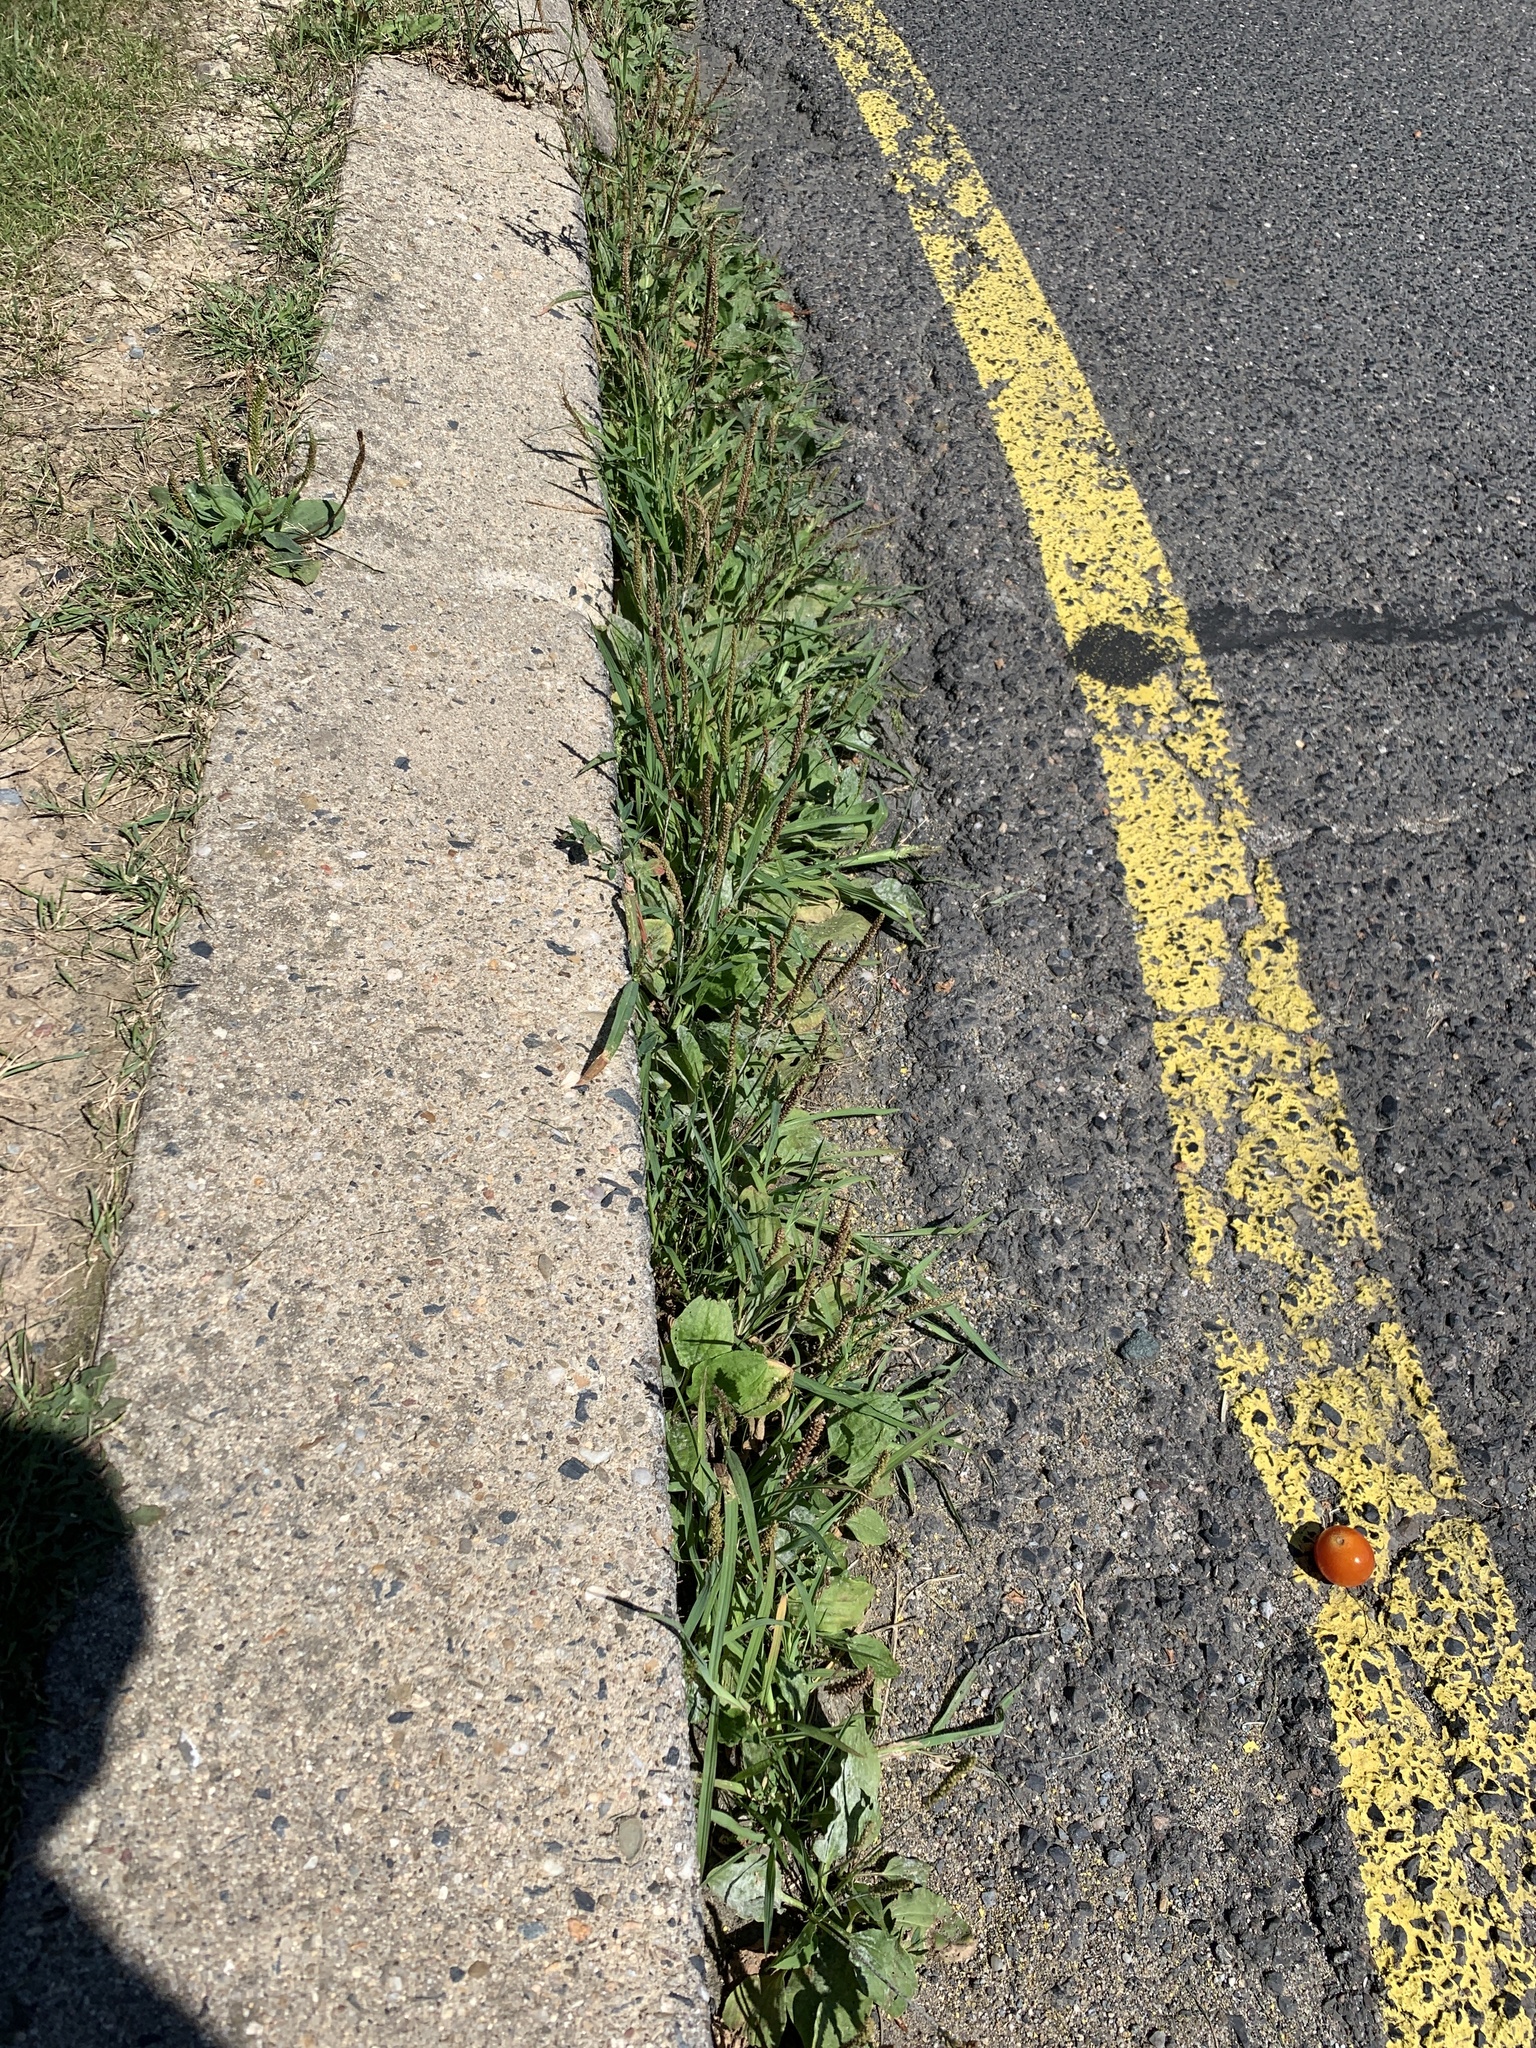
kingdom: Plantae
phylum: Tracheophyta
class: Magnoliopsida
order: Lamiales
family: Plantaginaceae
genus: Plantago
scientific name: Plantago major
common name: Common plantain
